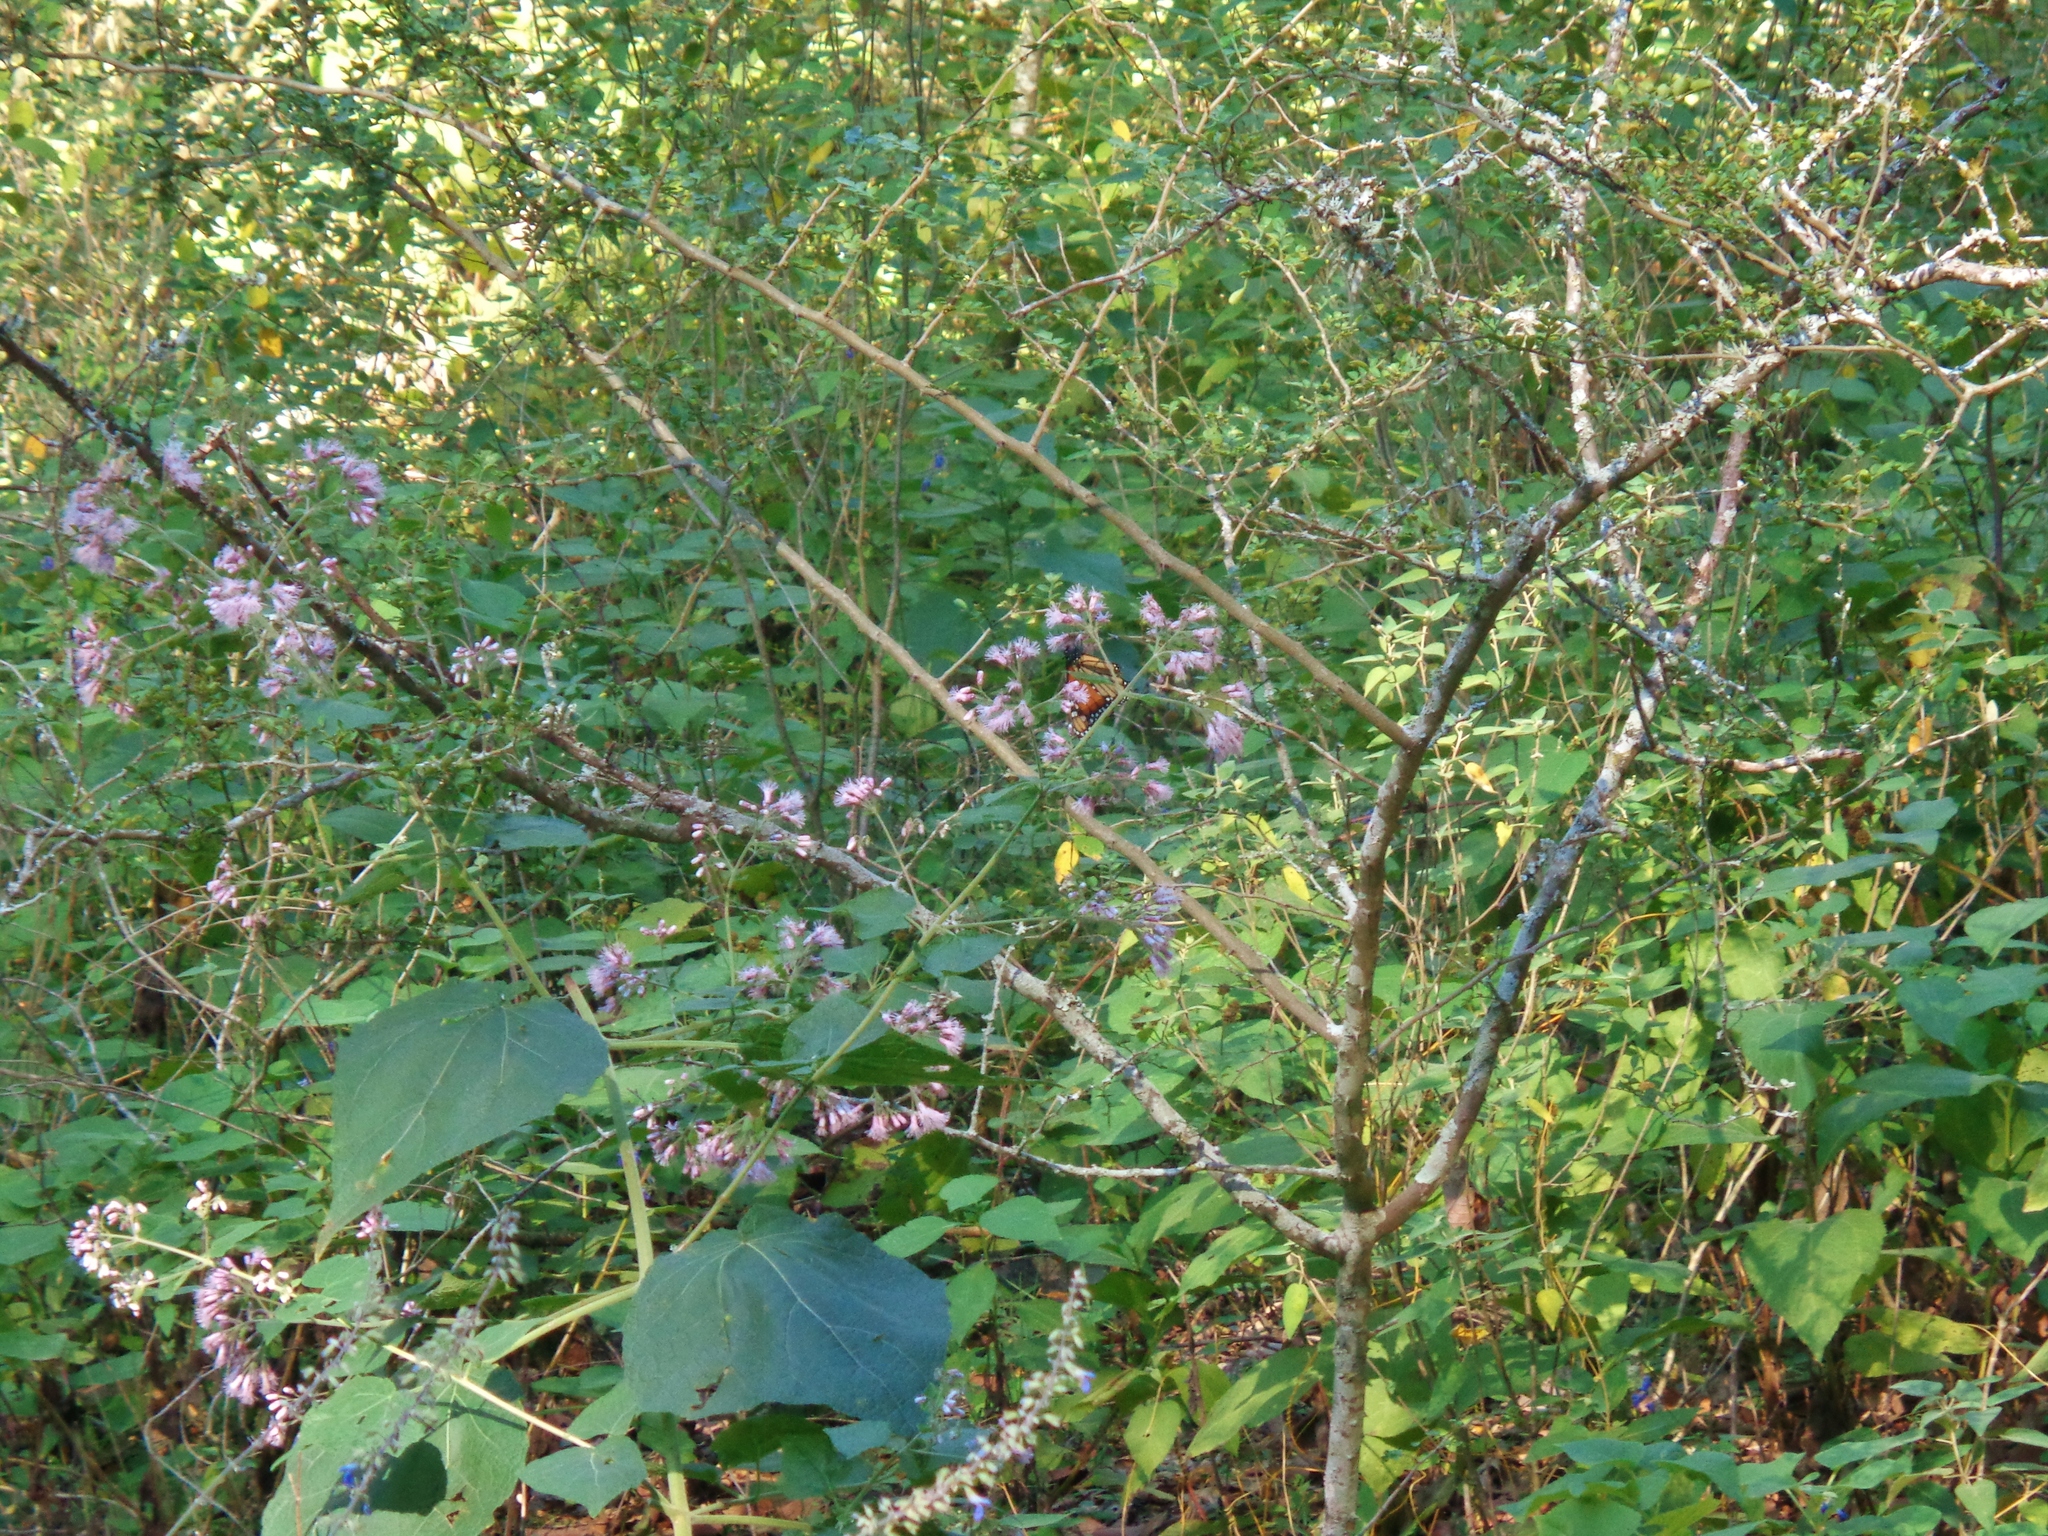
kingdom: Animalia
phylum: Arthropoda
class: Insecta
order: Lepidoptera
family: Nymphalidae
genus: Danaus
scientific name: Danaus plexippus
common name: Monarch
